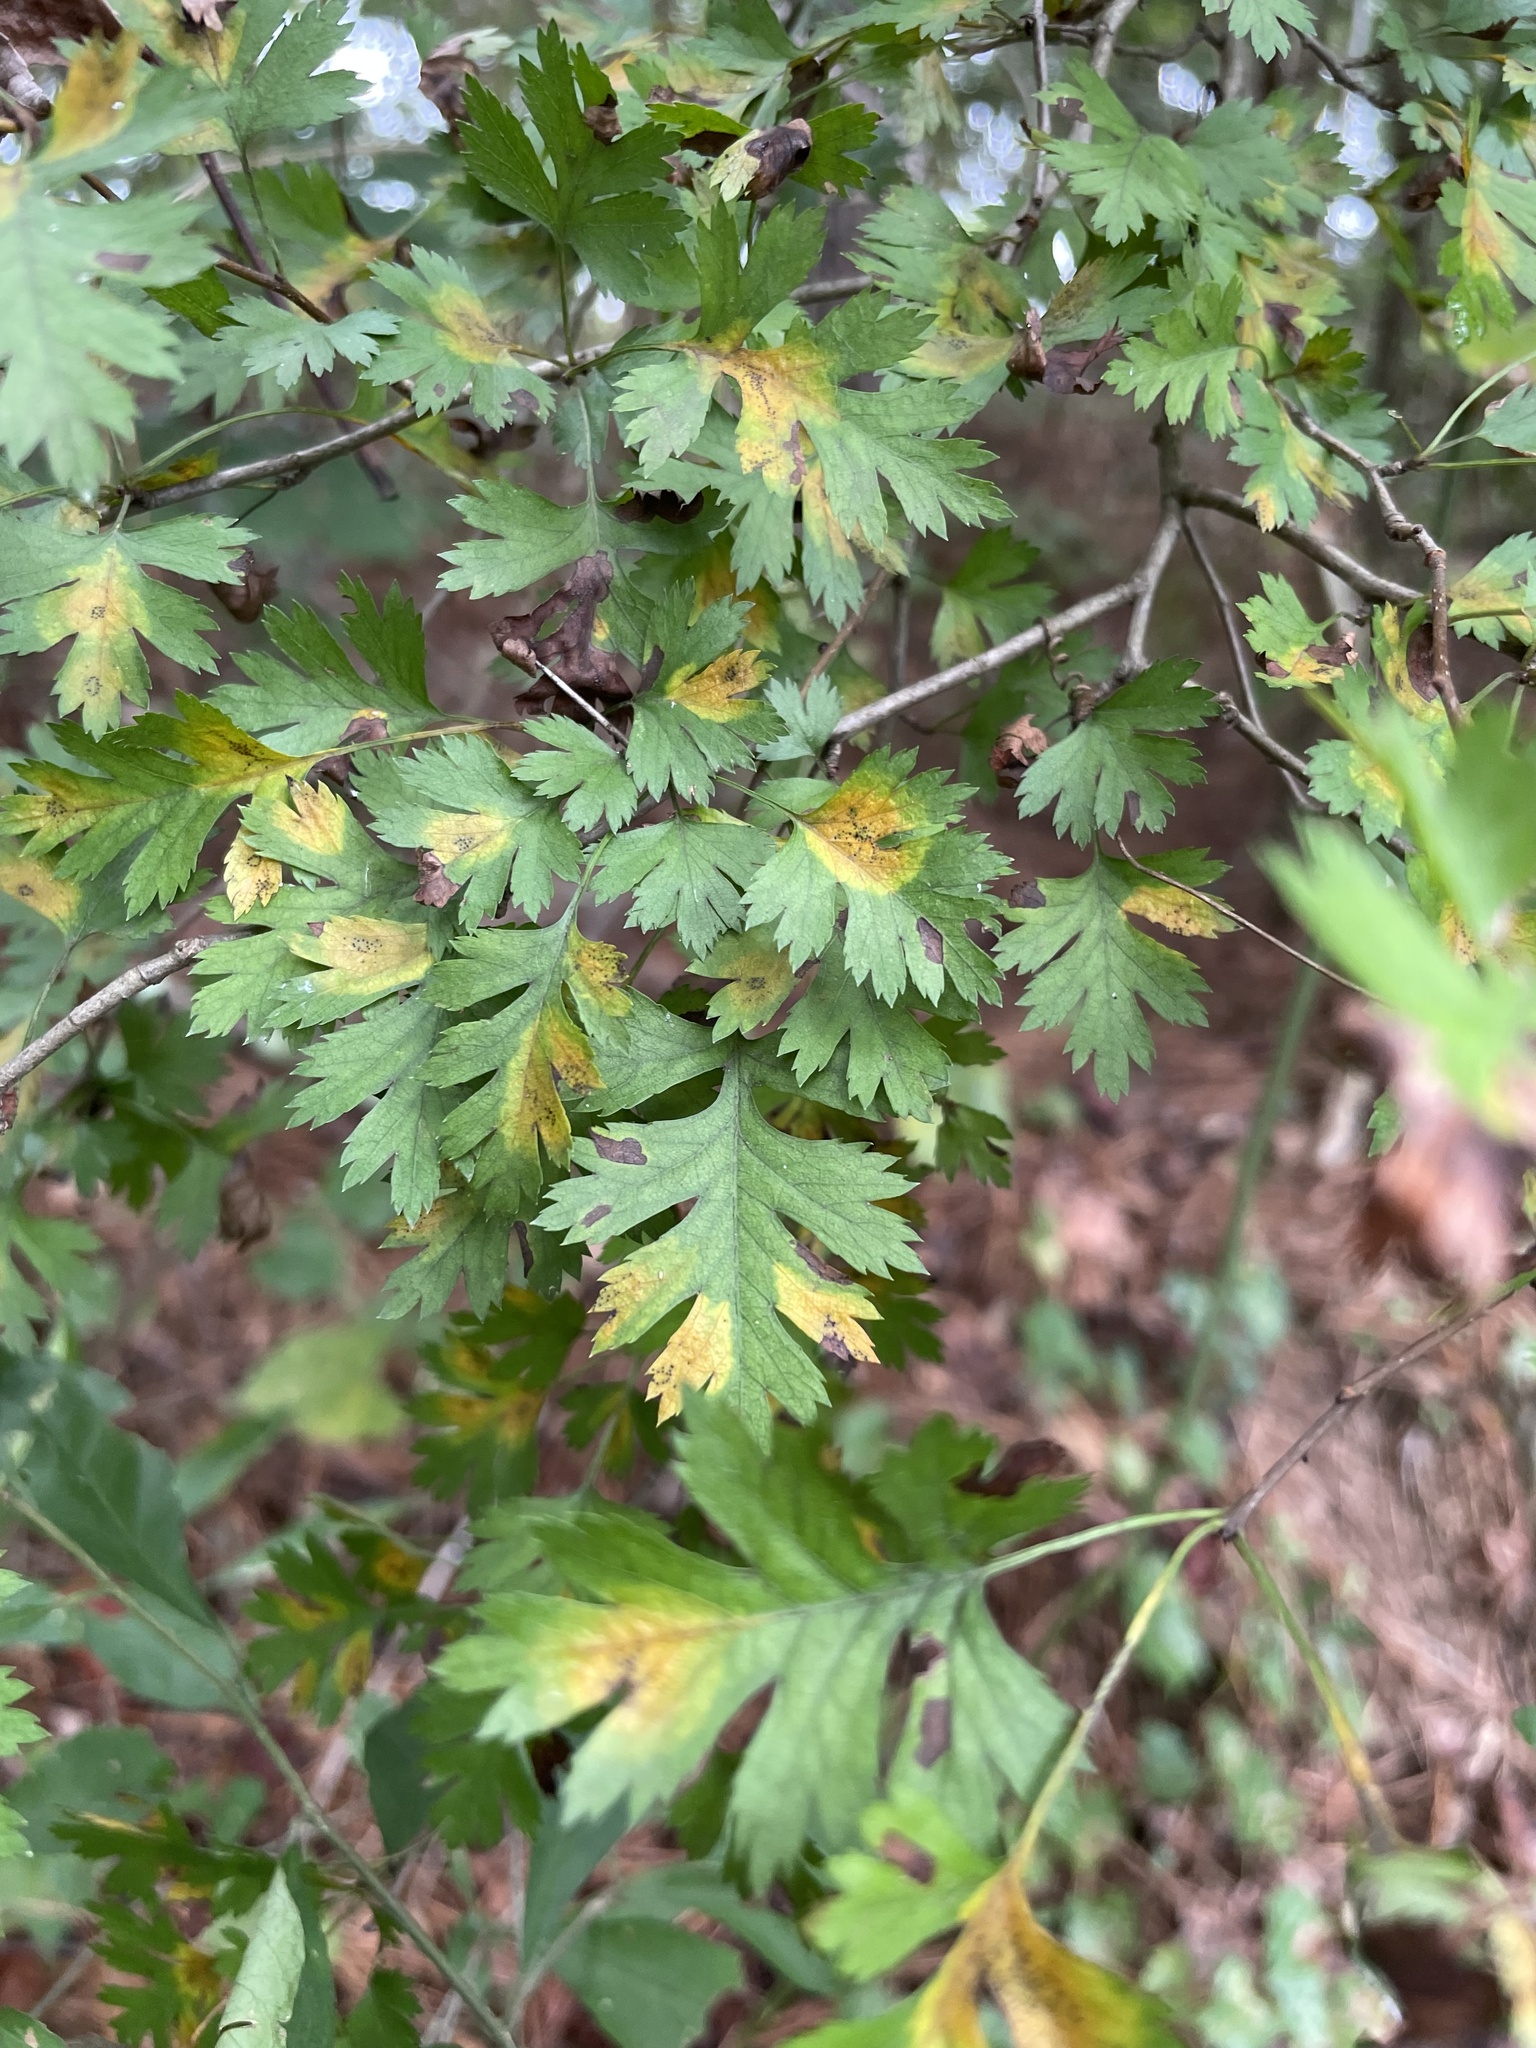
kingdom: Plantae
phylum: Tracheophyta
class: Magnoliopsida
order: Rosales
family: Rosaceae
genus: Crataegus
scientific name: Crataegus marshallii
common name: Parsley-hawthorn
